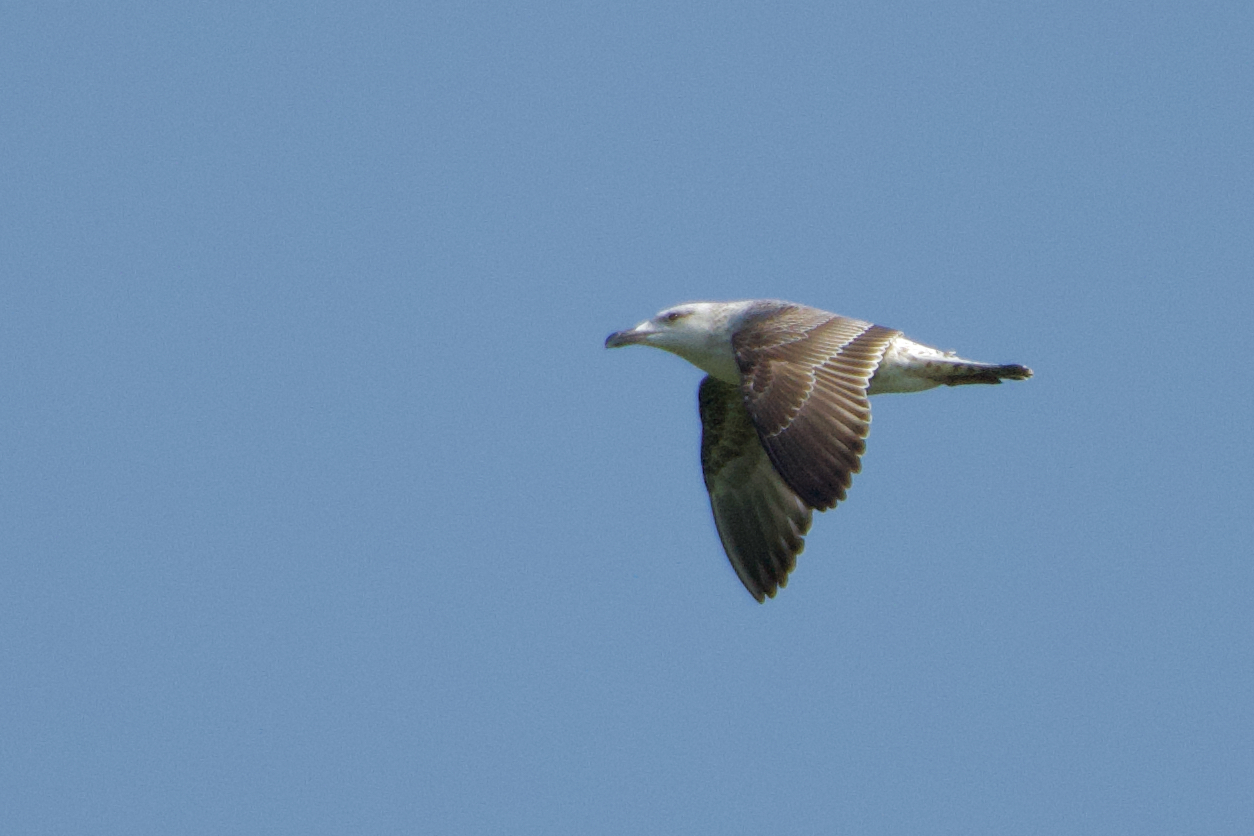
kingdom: Animalia
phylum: Chordata
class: Aves
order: Charadriiformes
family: Laridae
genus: Larus
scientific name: Larus michahellis
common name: Yellow-legged gull
